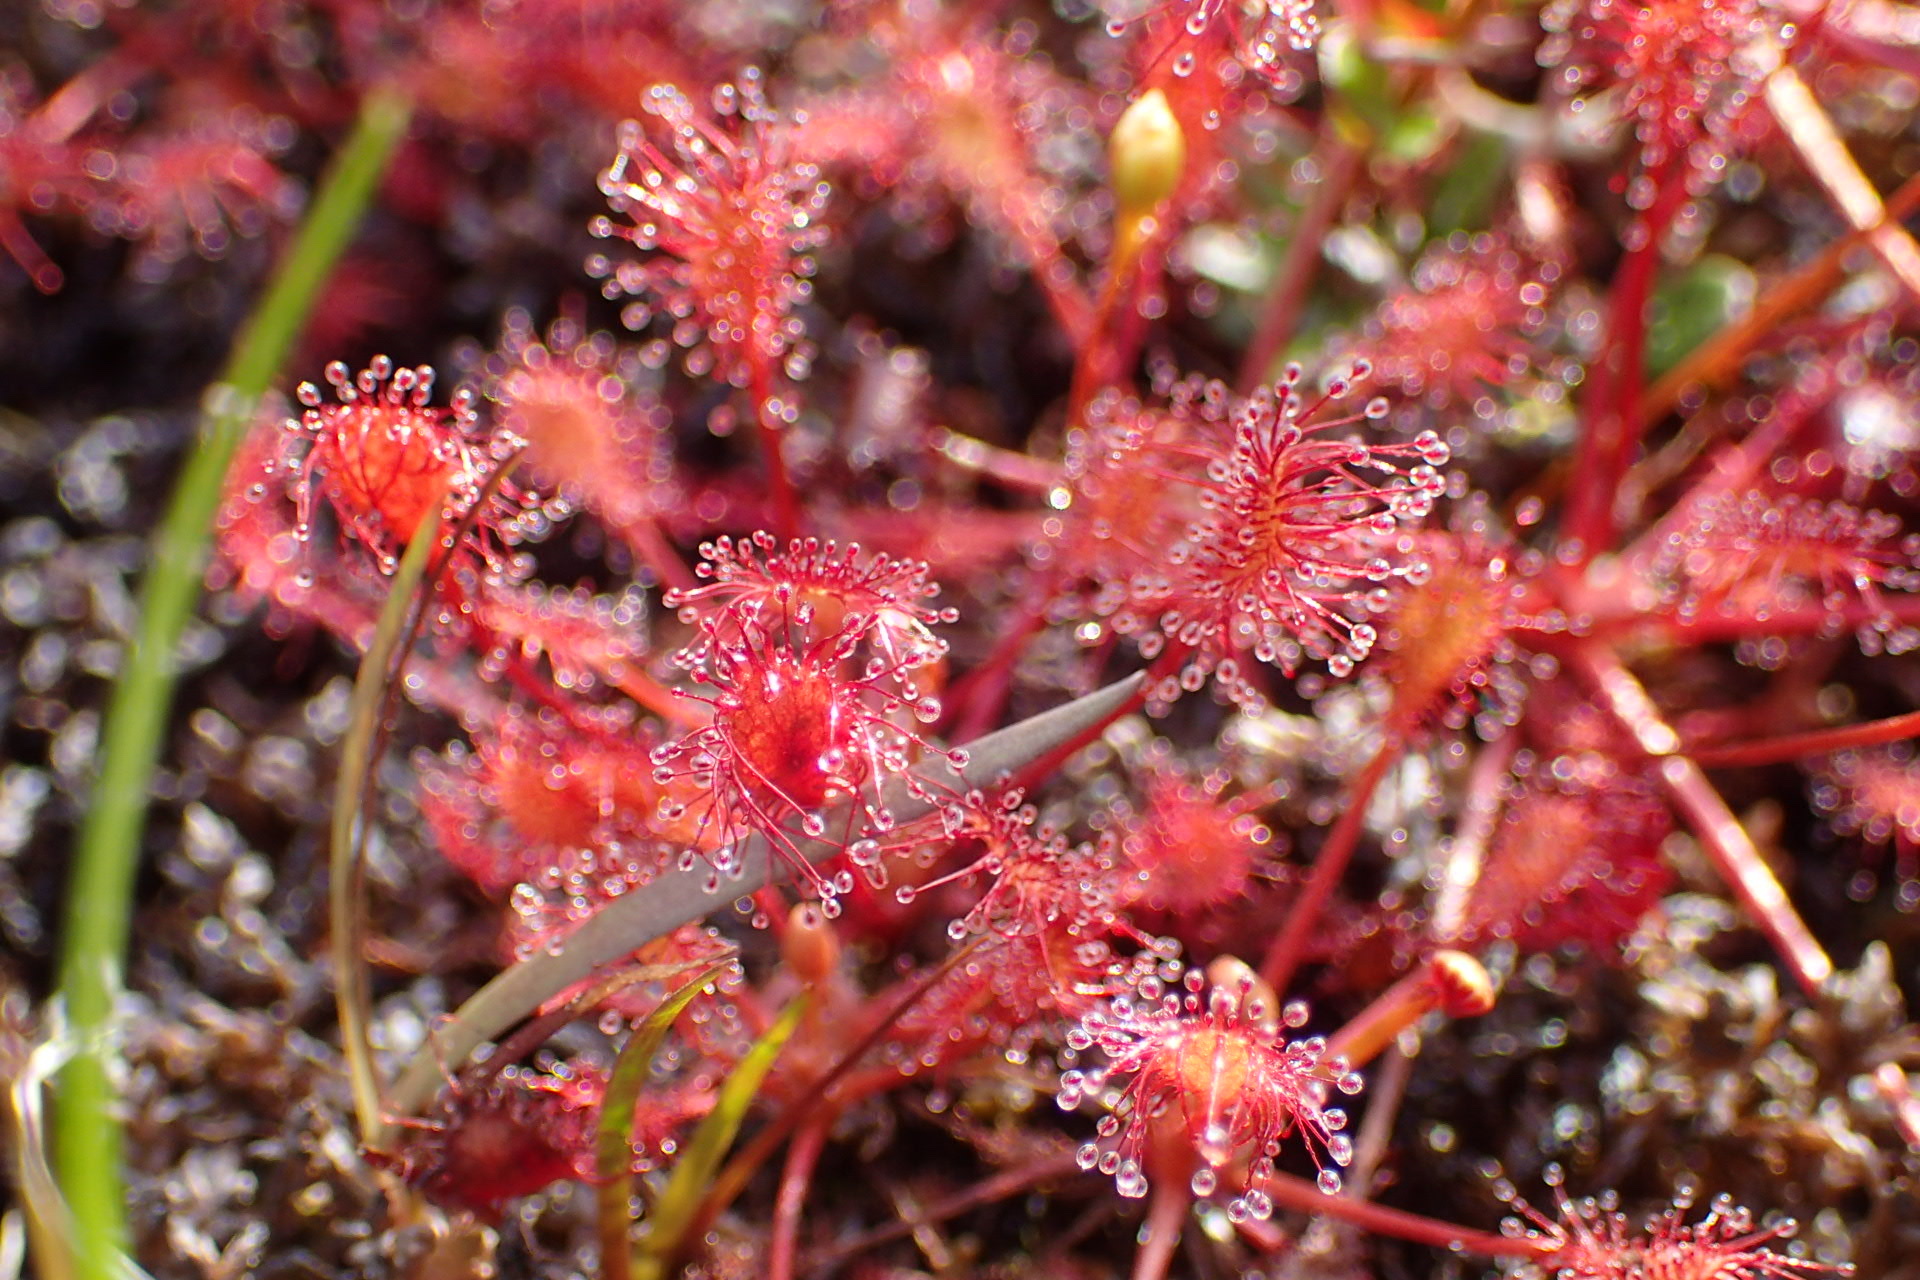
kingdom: Plantae
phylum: Tracheophyta
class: Magnoliopsida
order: Caryophyllales
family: Droseraceae
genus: Drosera
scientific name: Drosera intermedia
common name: Oblong-leaved sundew
